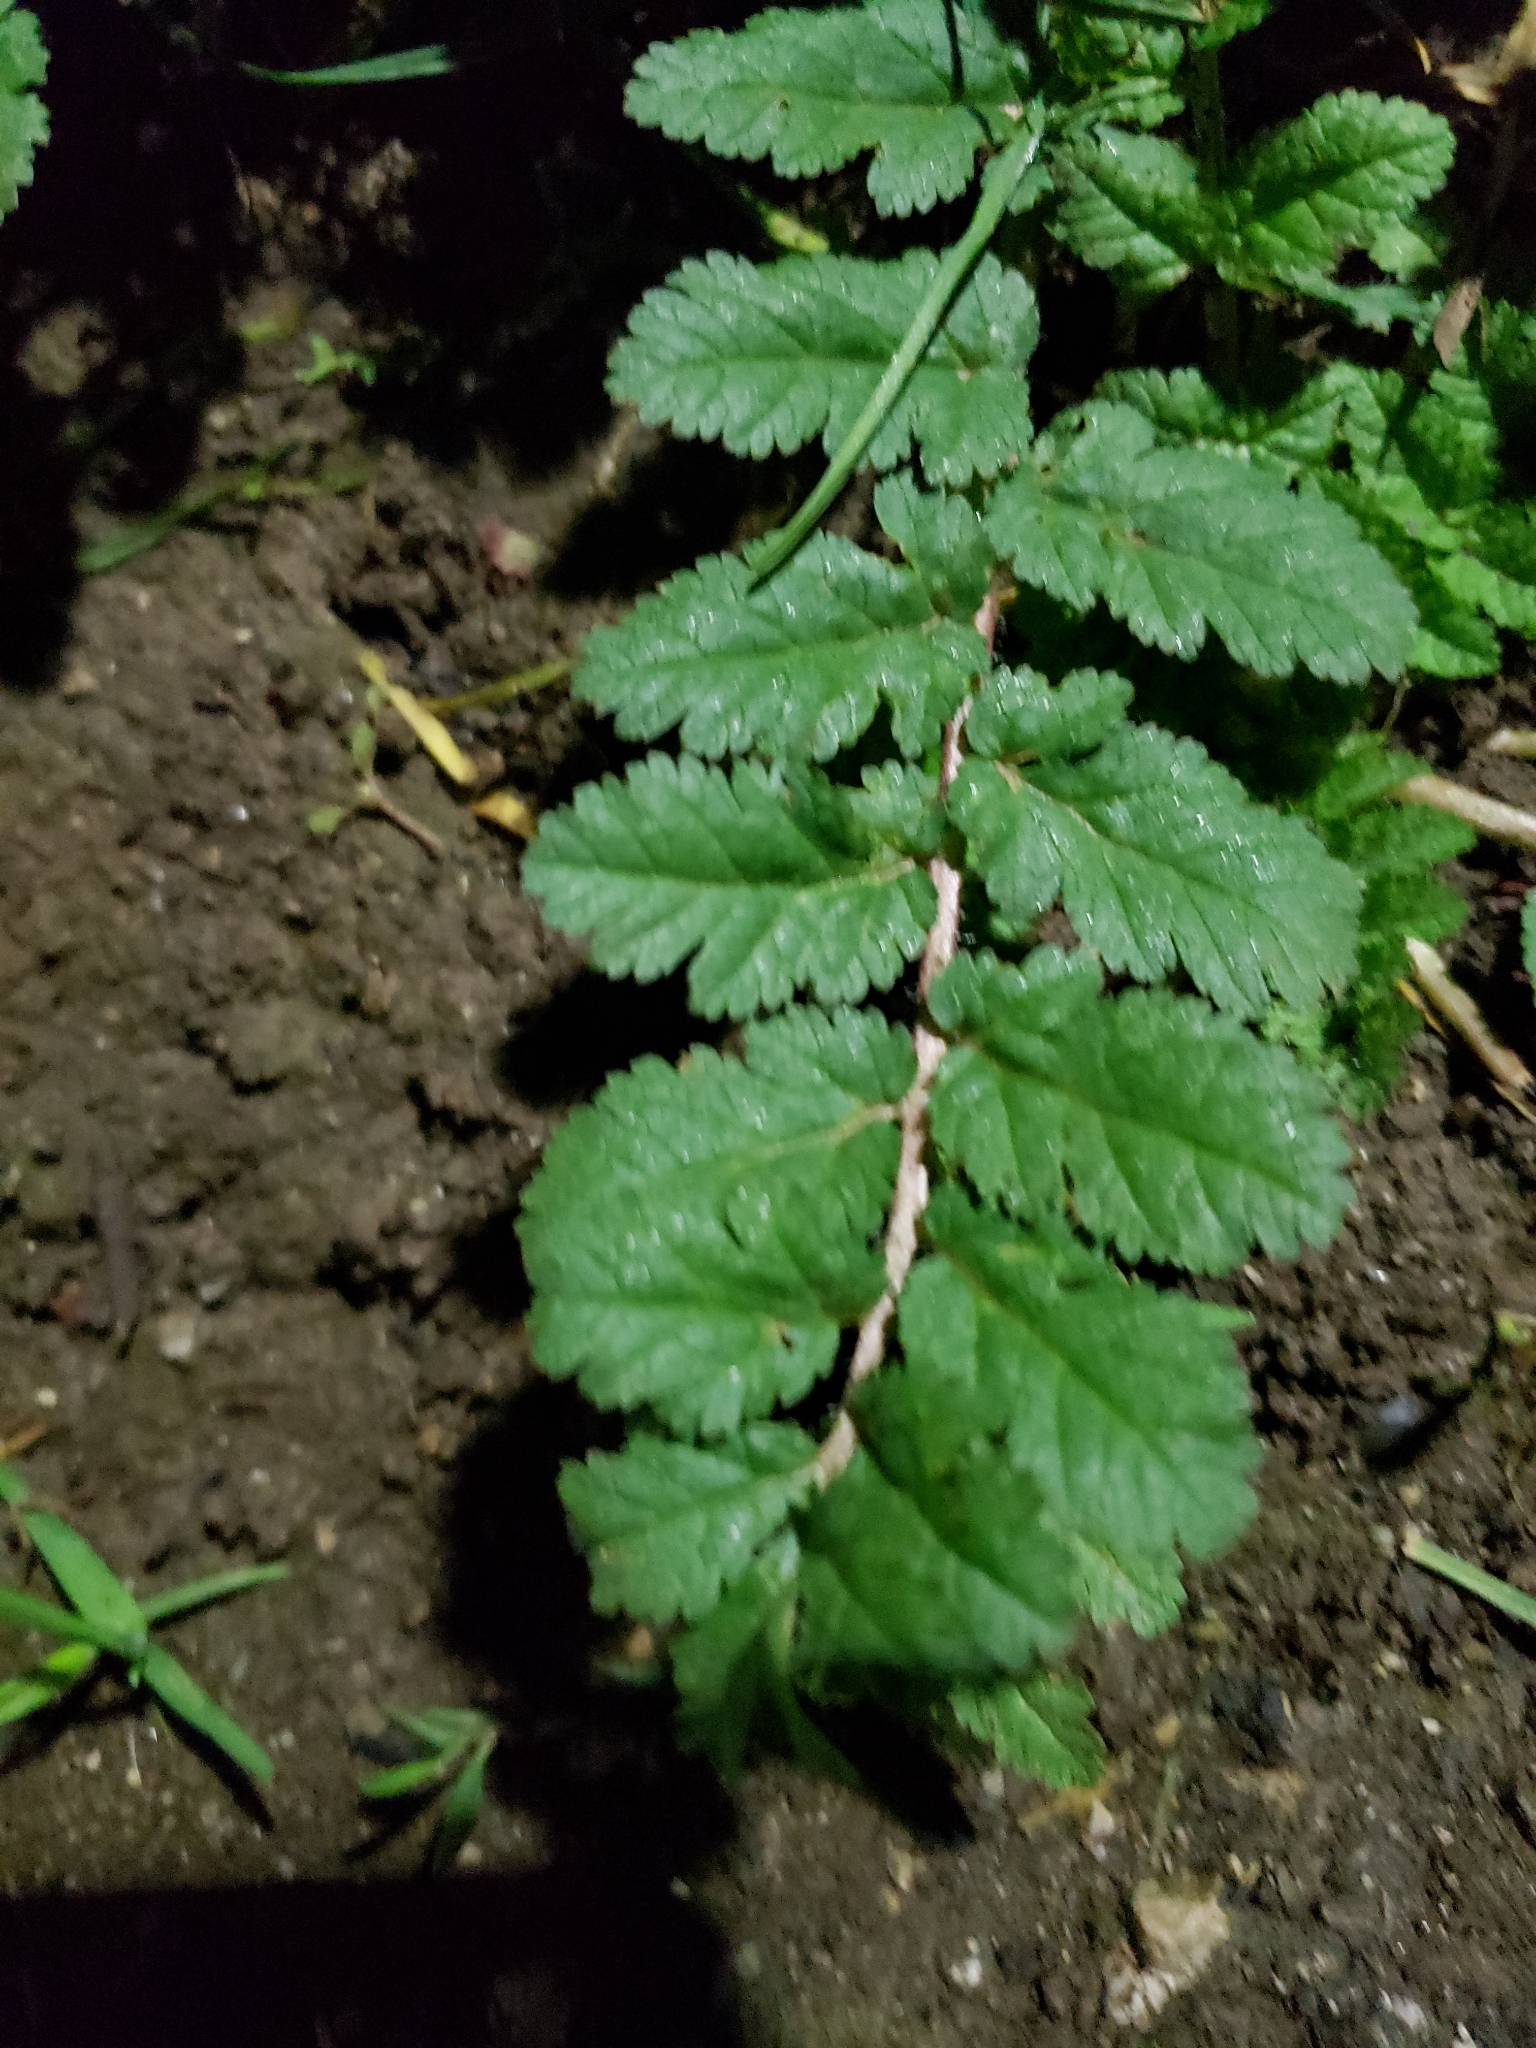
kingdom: Plantae
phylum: Tracheophyta
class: Magnoliopsida
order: Geraniales
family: Geraniaceae
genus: Erodium
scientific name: Erodium moschatum
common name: Musk stork's-bill
